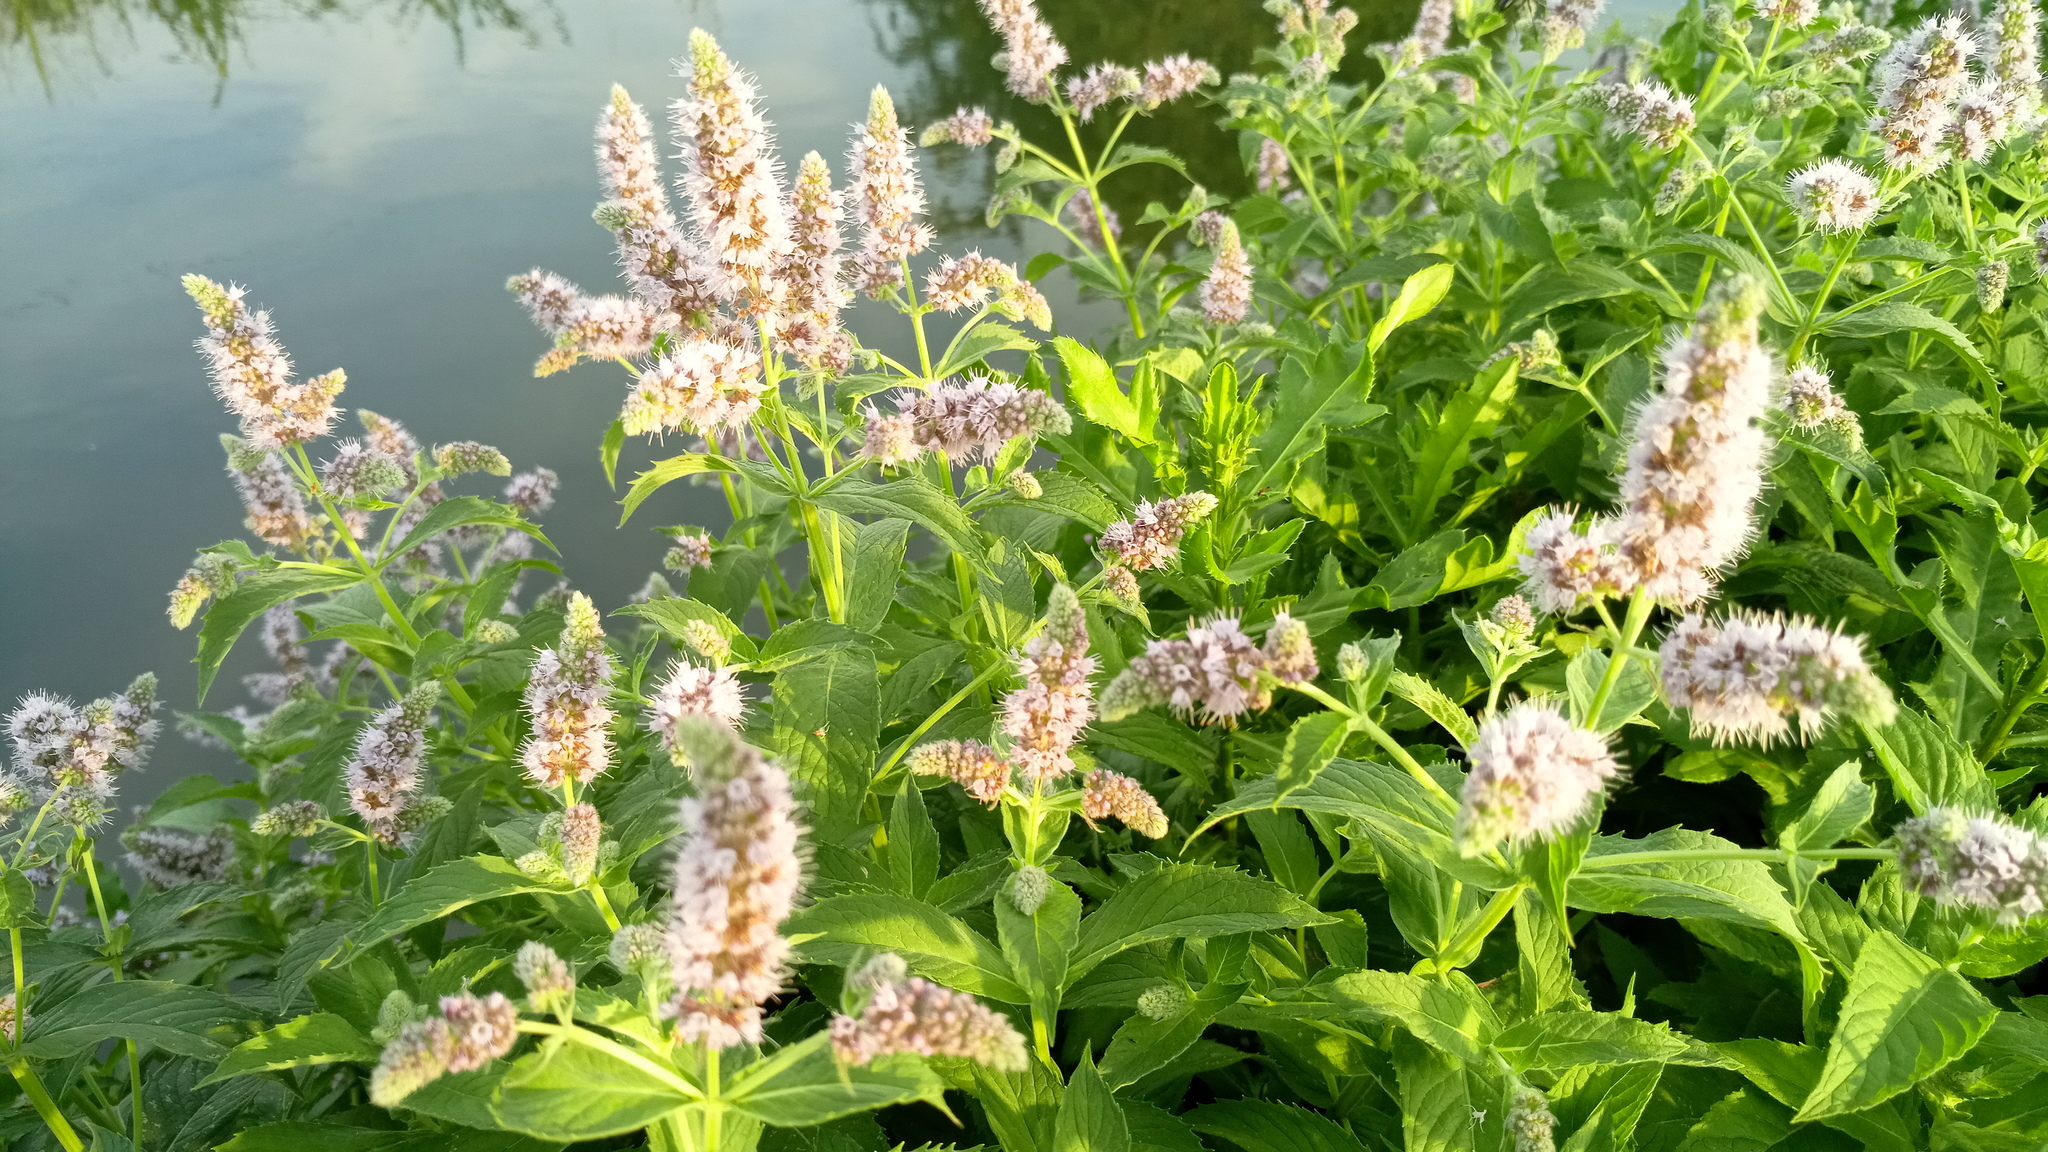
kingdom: Plantae
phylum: Tracheophyta
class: Magnoliopsida
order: Lamiales
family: Lamiaceae
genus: Mentha
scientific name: Mentha longifolia
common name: Horse mint
